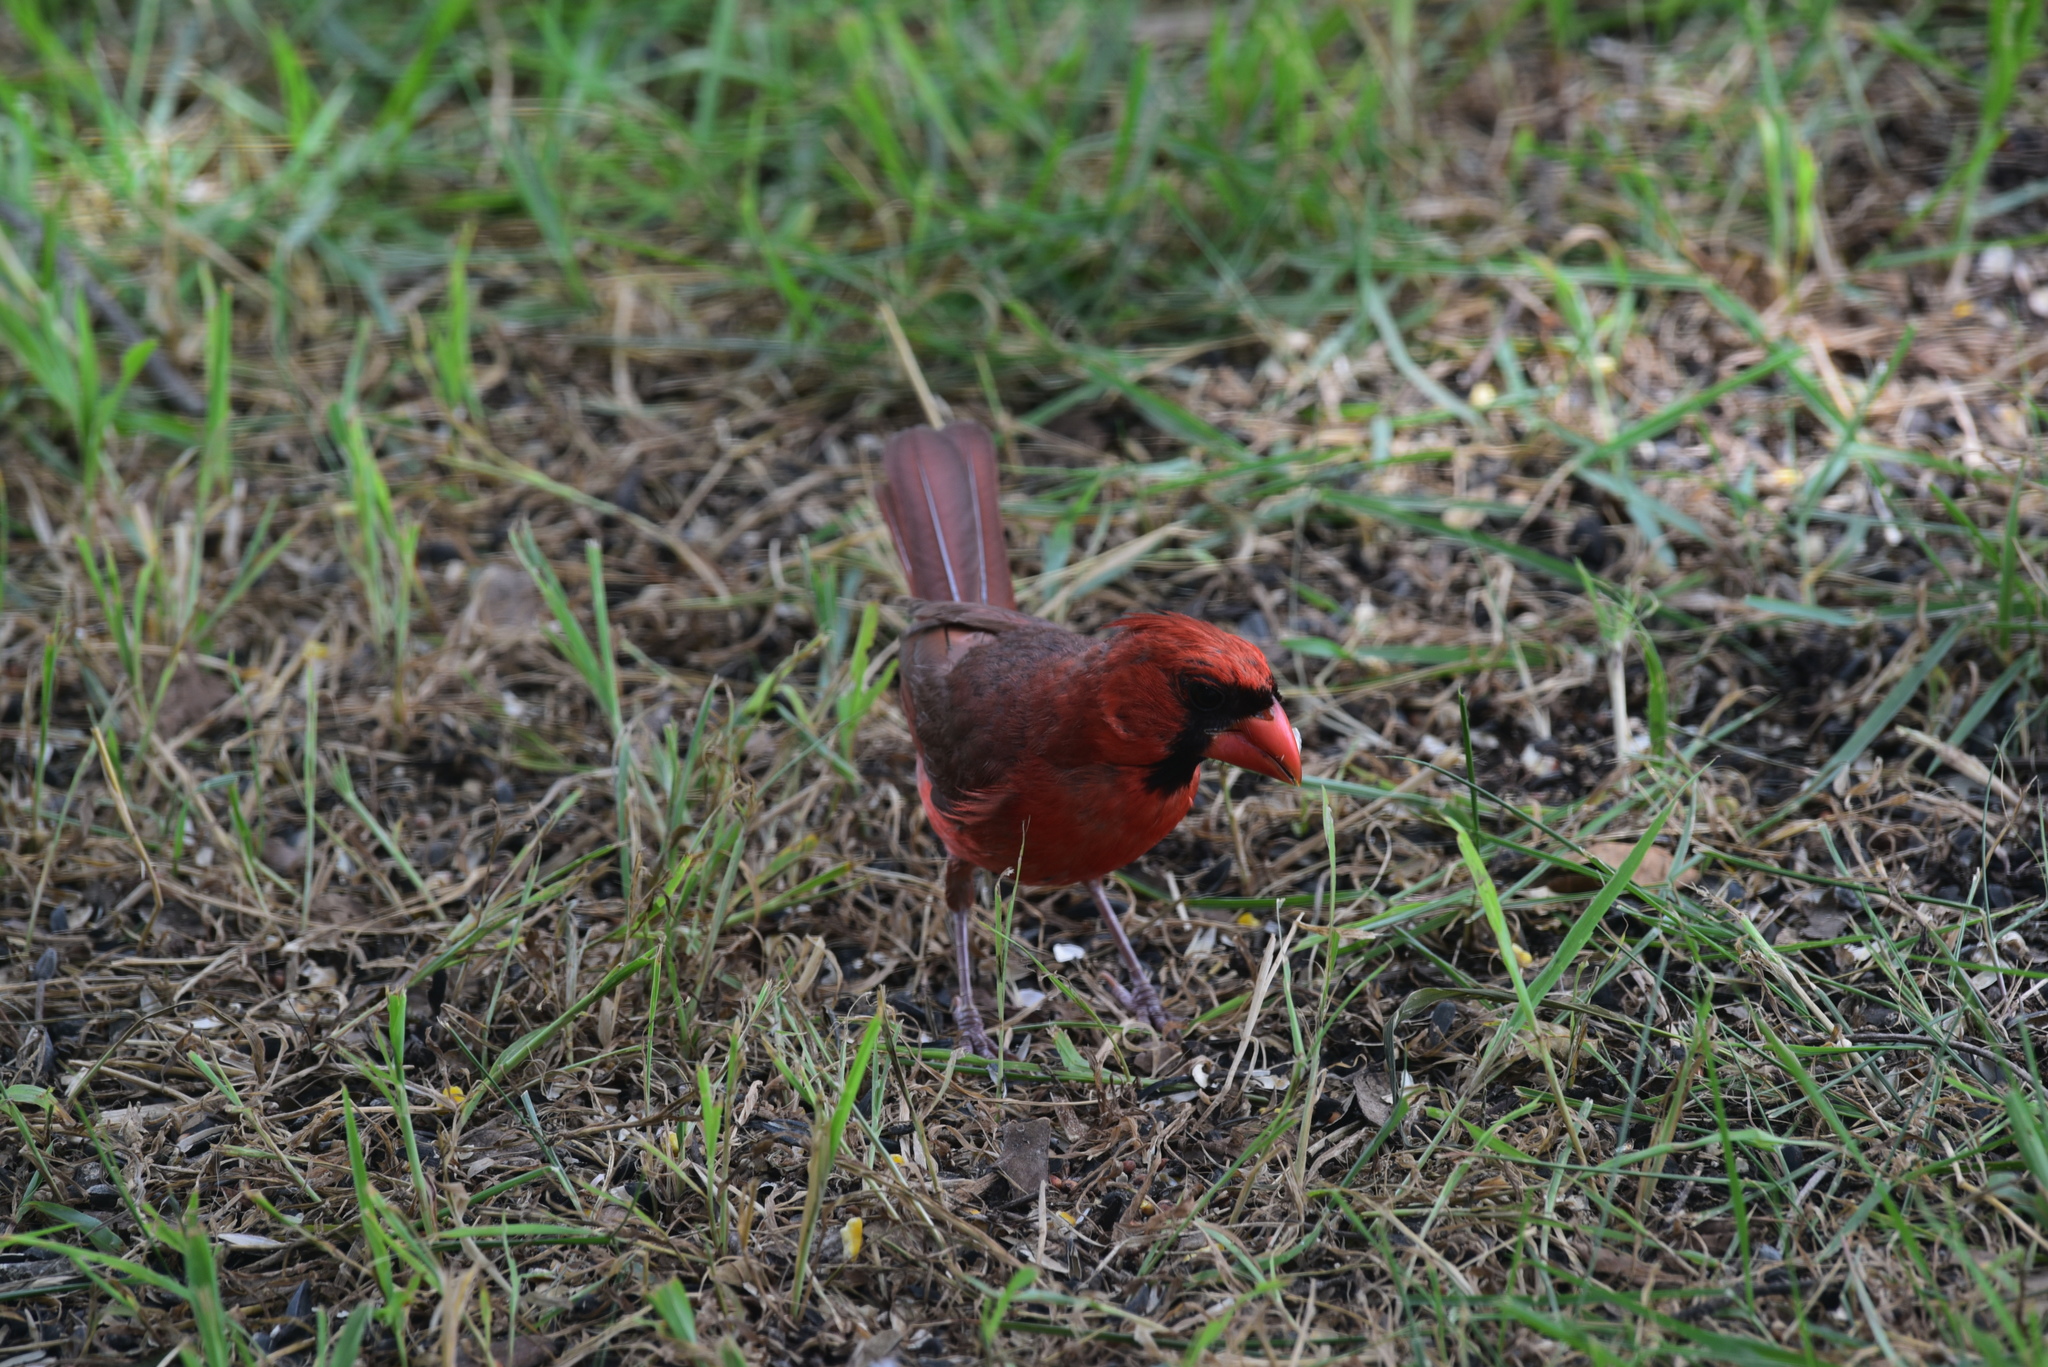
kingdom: Animalia
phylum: Chordata
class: Aves
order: Passeriformes
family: Cardinalidae
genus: Cardinalis
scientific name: Cardinalis cardinalis
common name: Northern cardinal
